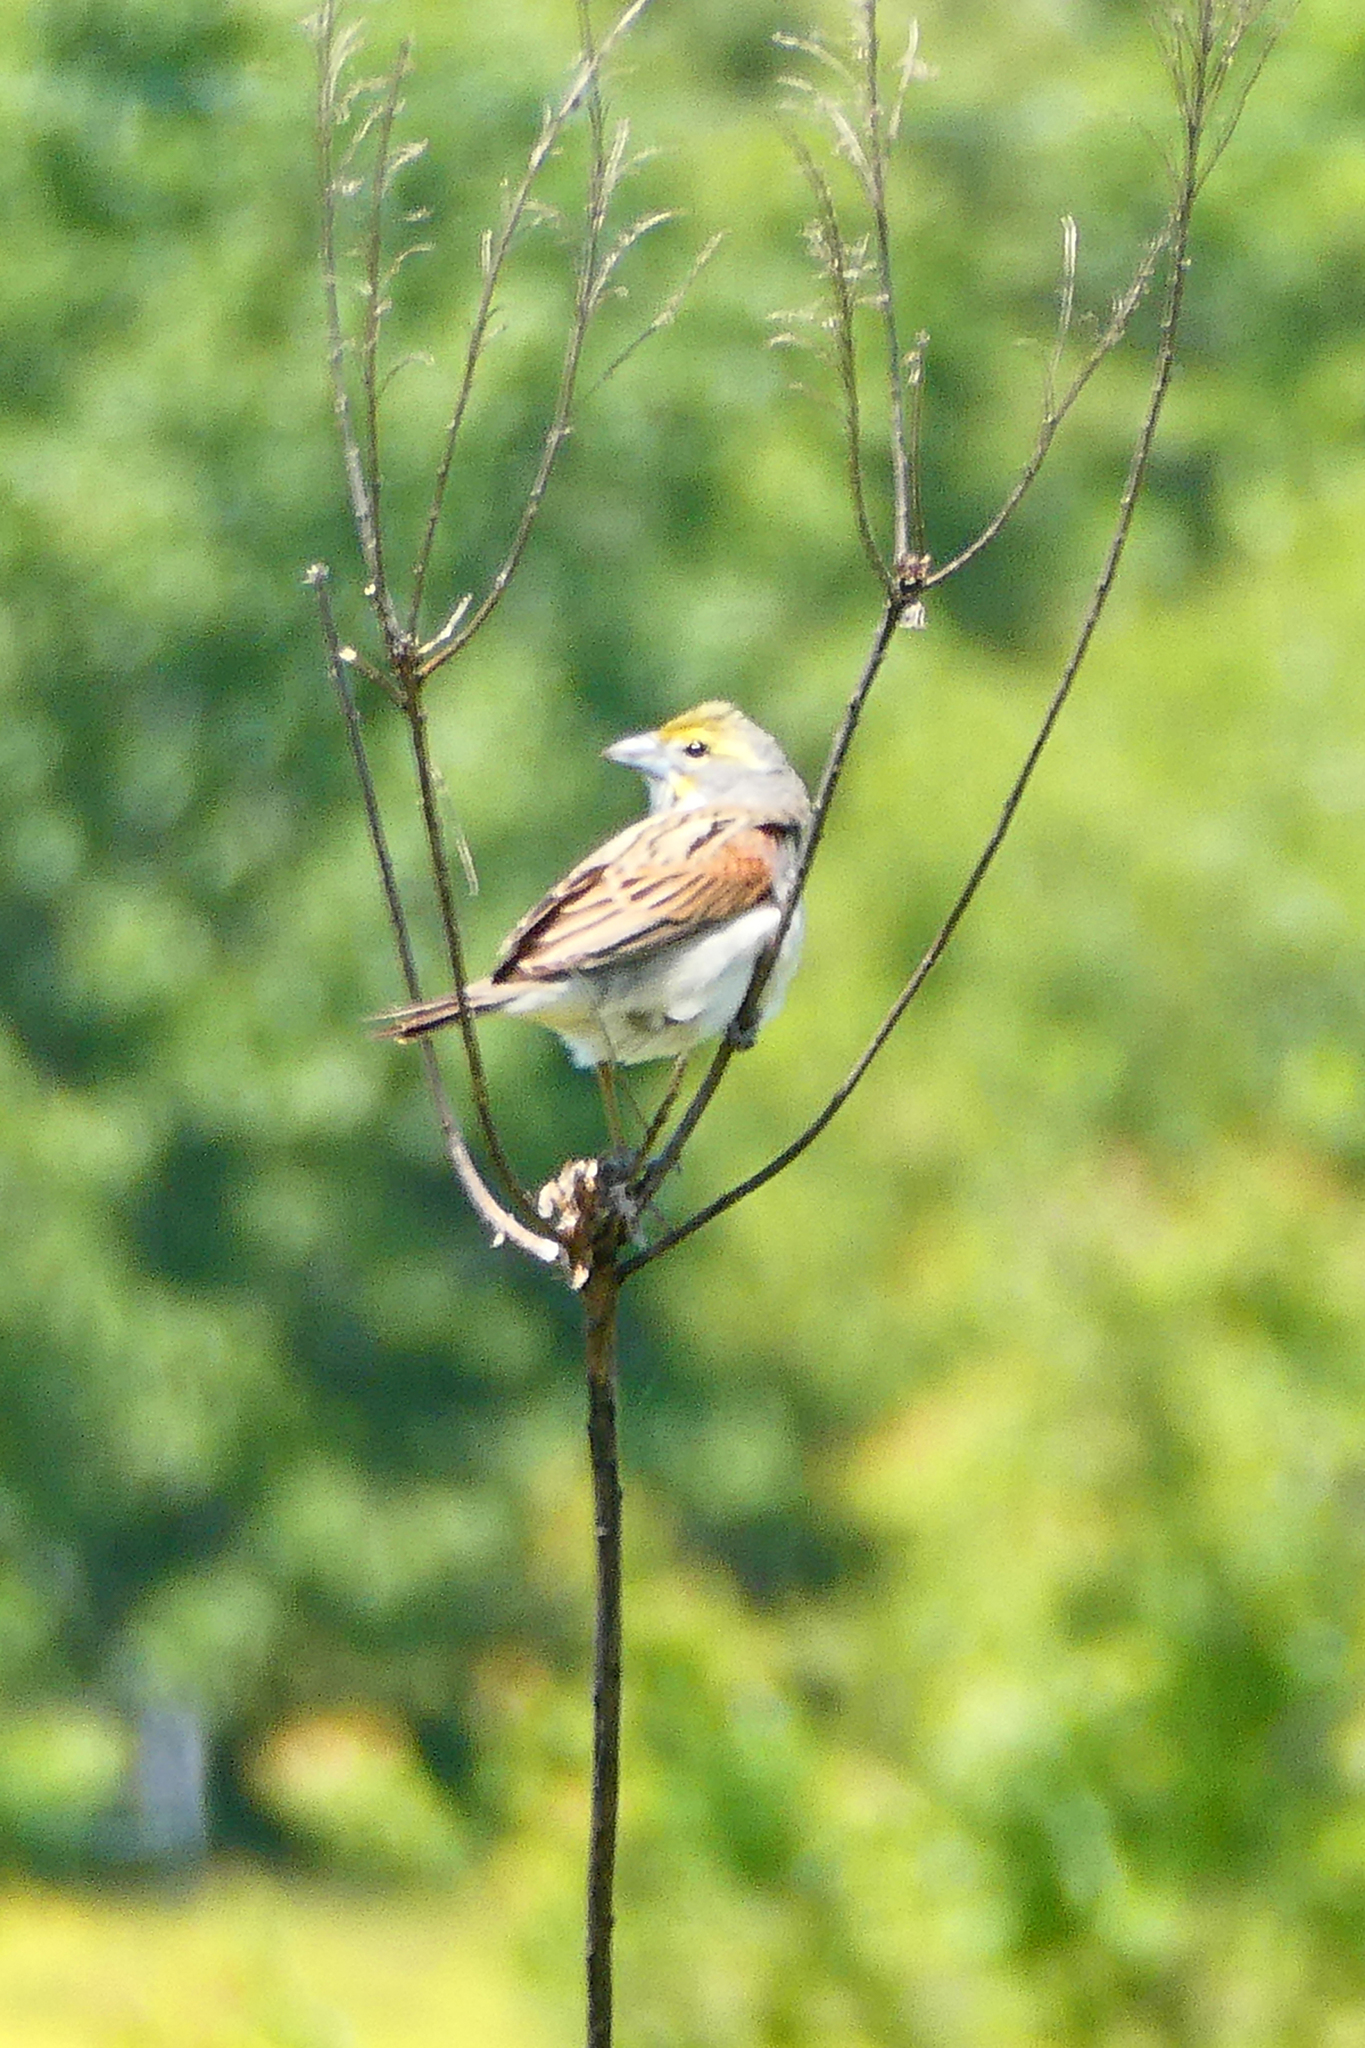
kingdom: Animalia
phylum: Chordata
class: Aves
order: Passeriformes
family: Cardinalidae
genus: Spiza
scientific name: Spiza americana
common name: Dickcissel
